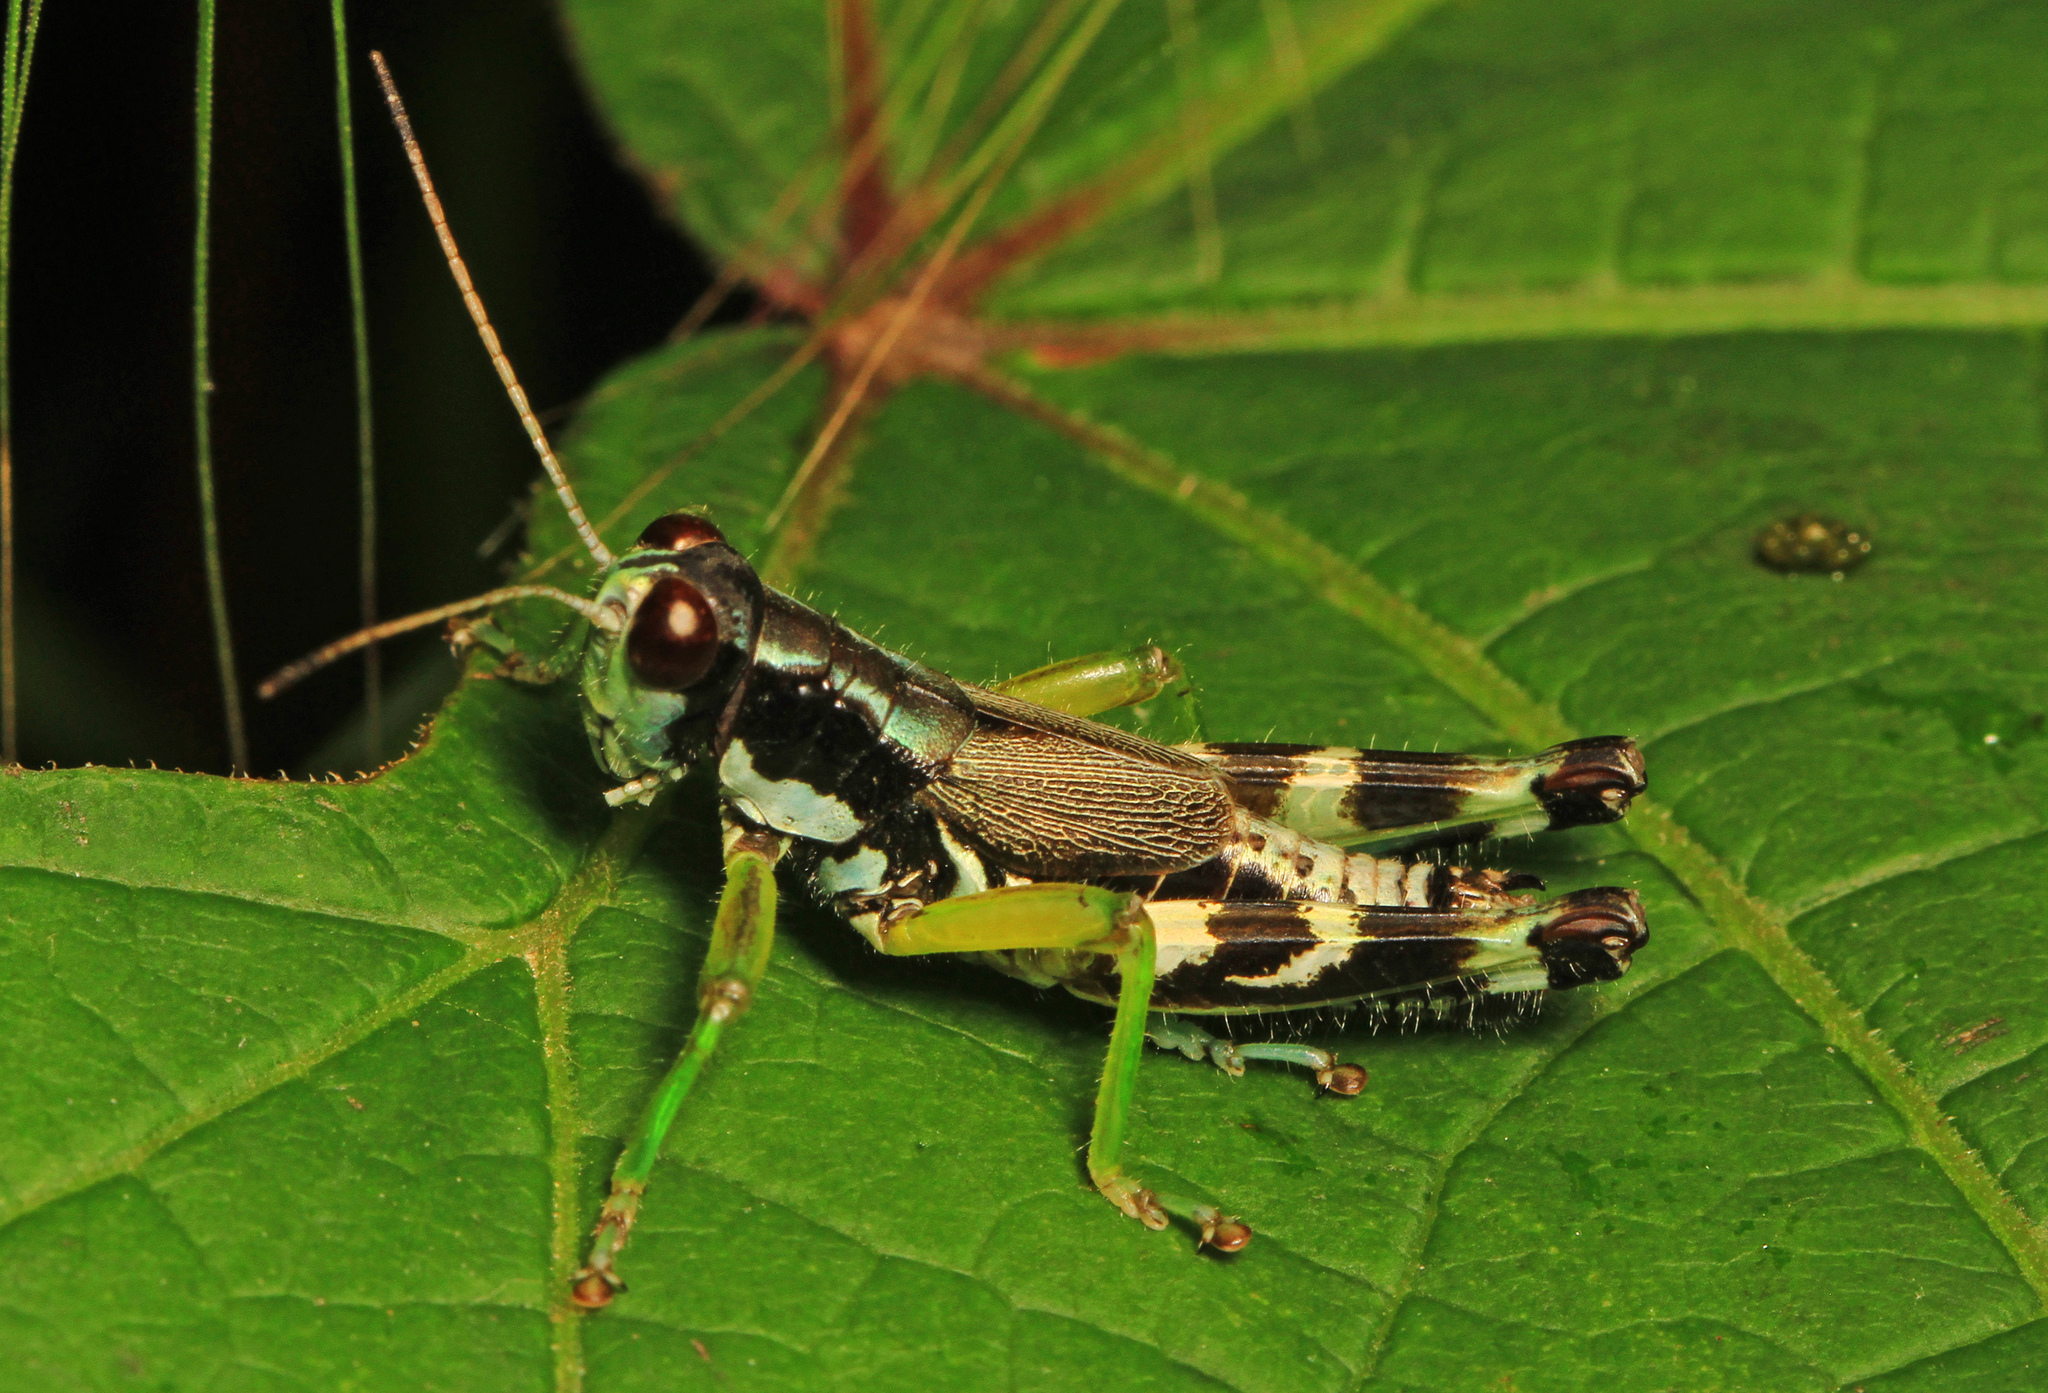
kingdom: Animalia
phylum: Arthropoda
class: Insecta
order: Orthoptera
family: Acrididae
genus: Melanoplus
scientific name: Melanoplus viridipes
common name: Green-legged locust
